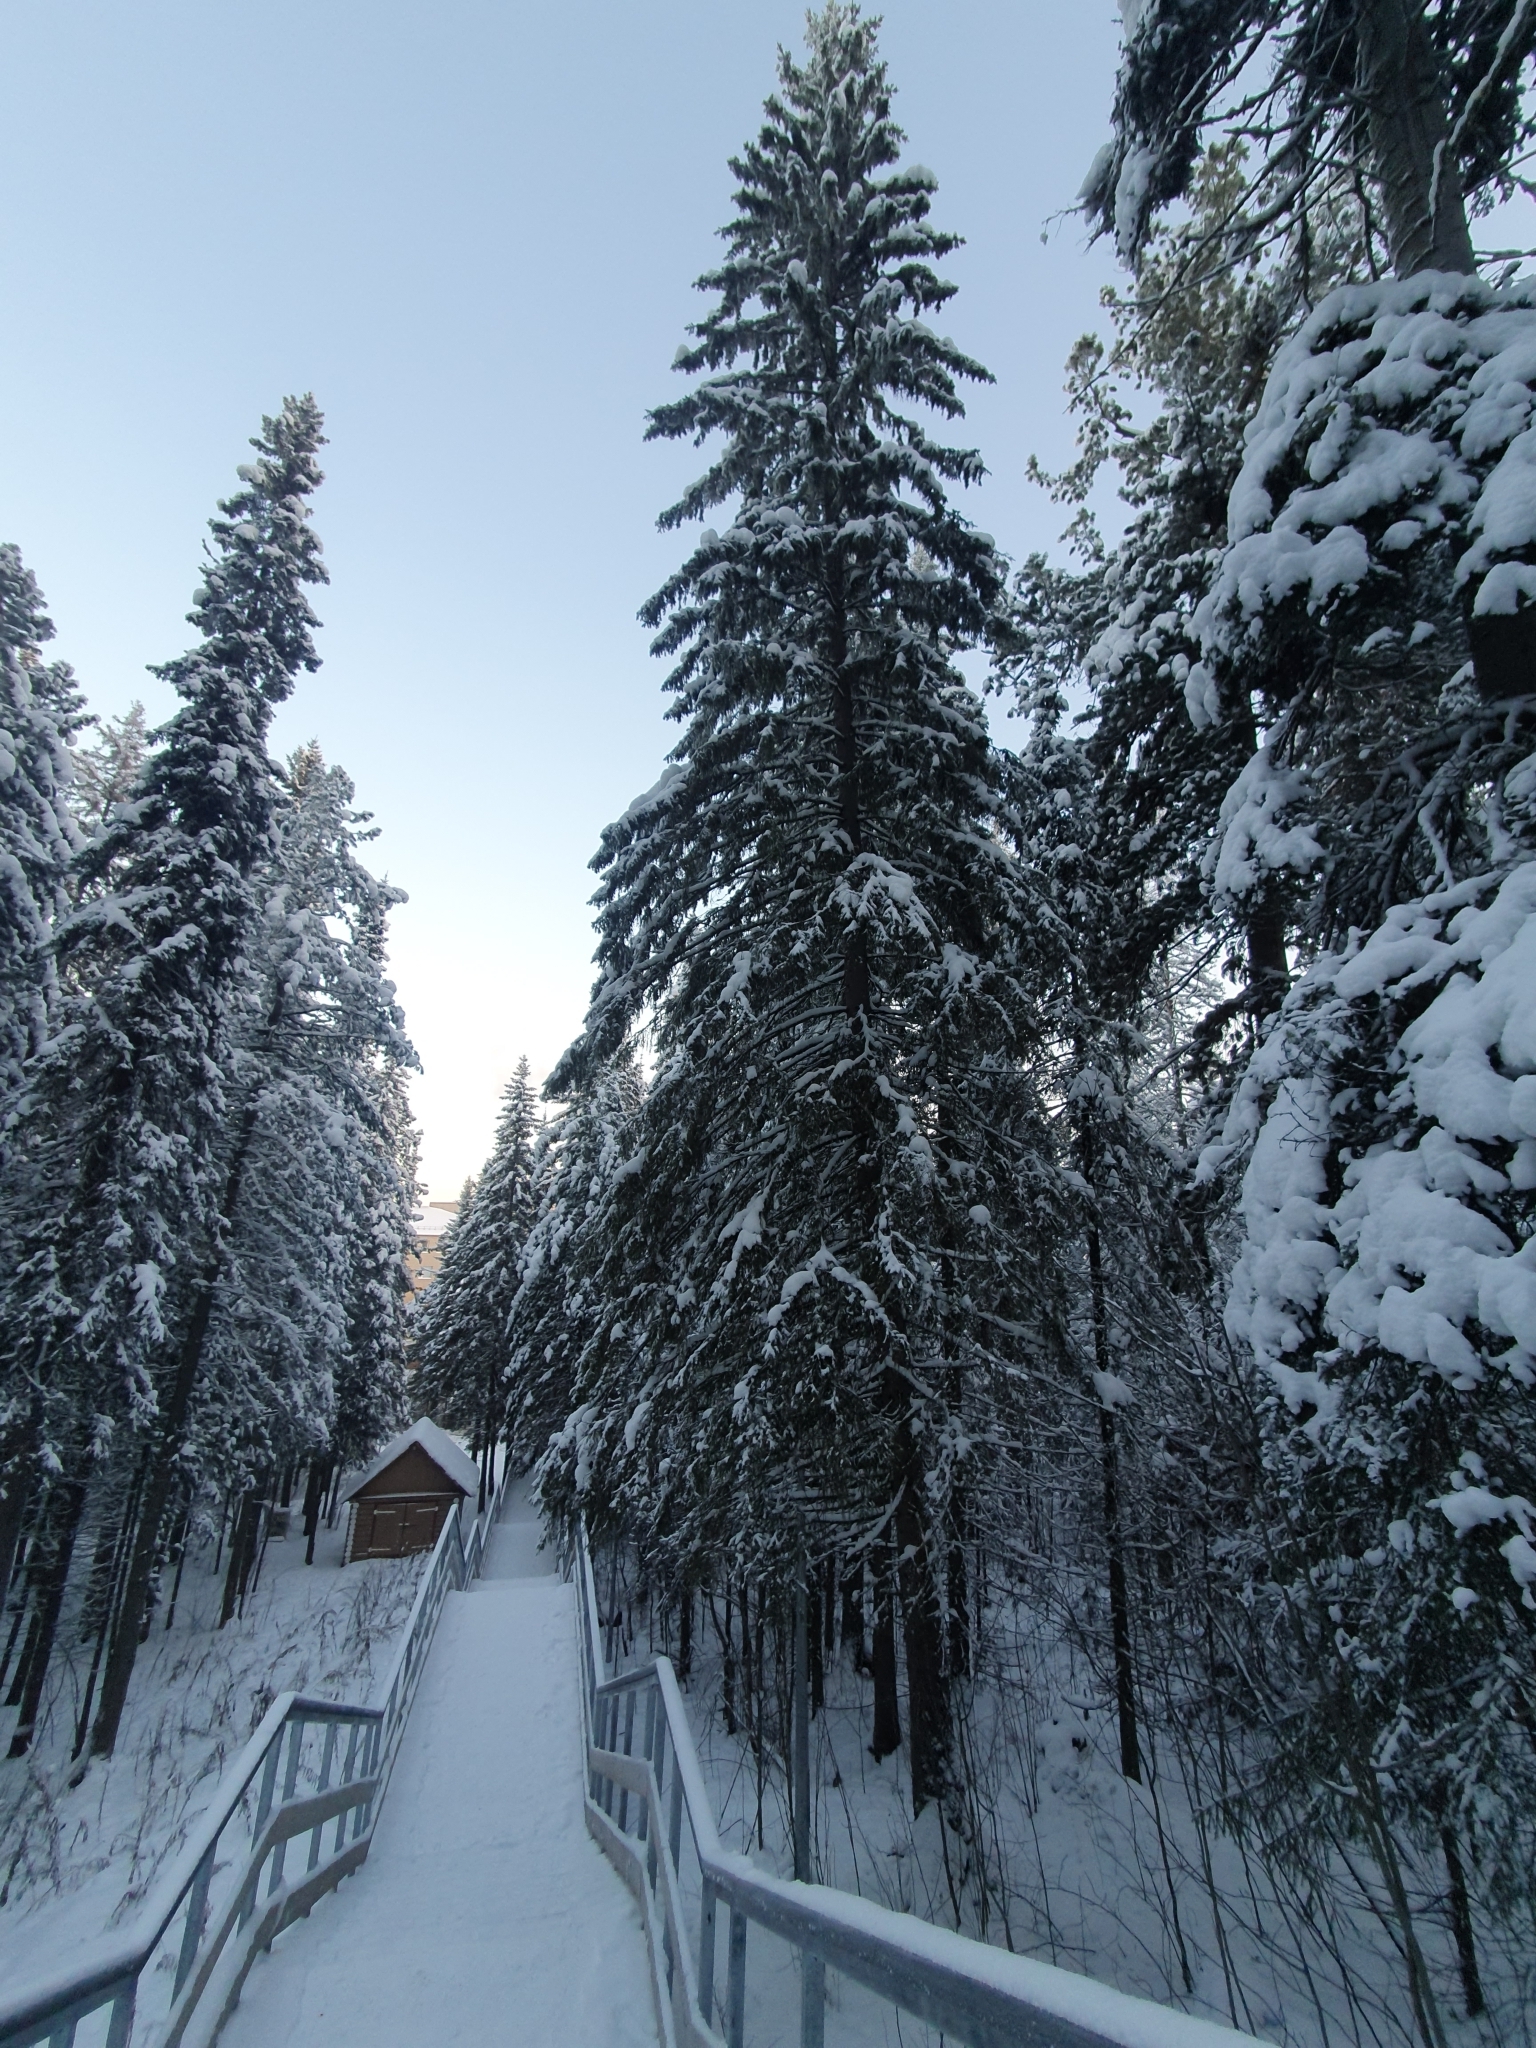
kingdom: Plantae
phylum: Tracheophyta
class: Pinopsida
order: Pinales
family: Pinaceae
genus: Picea
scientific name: Picea obovata
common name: Siberian spruce
